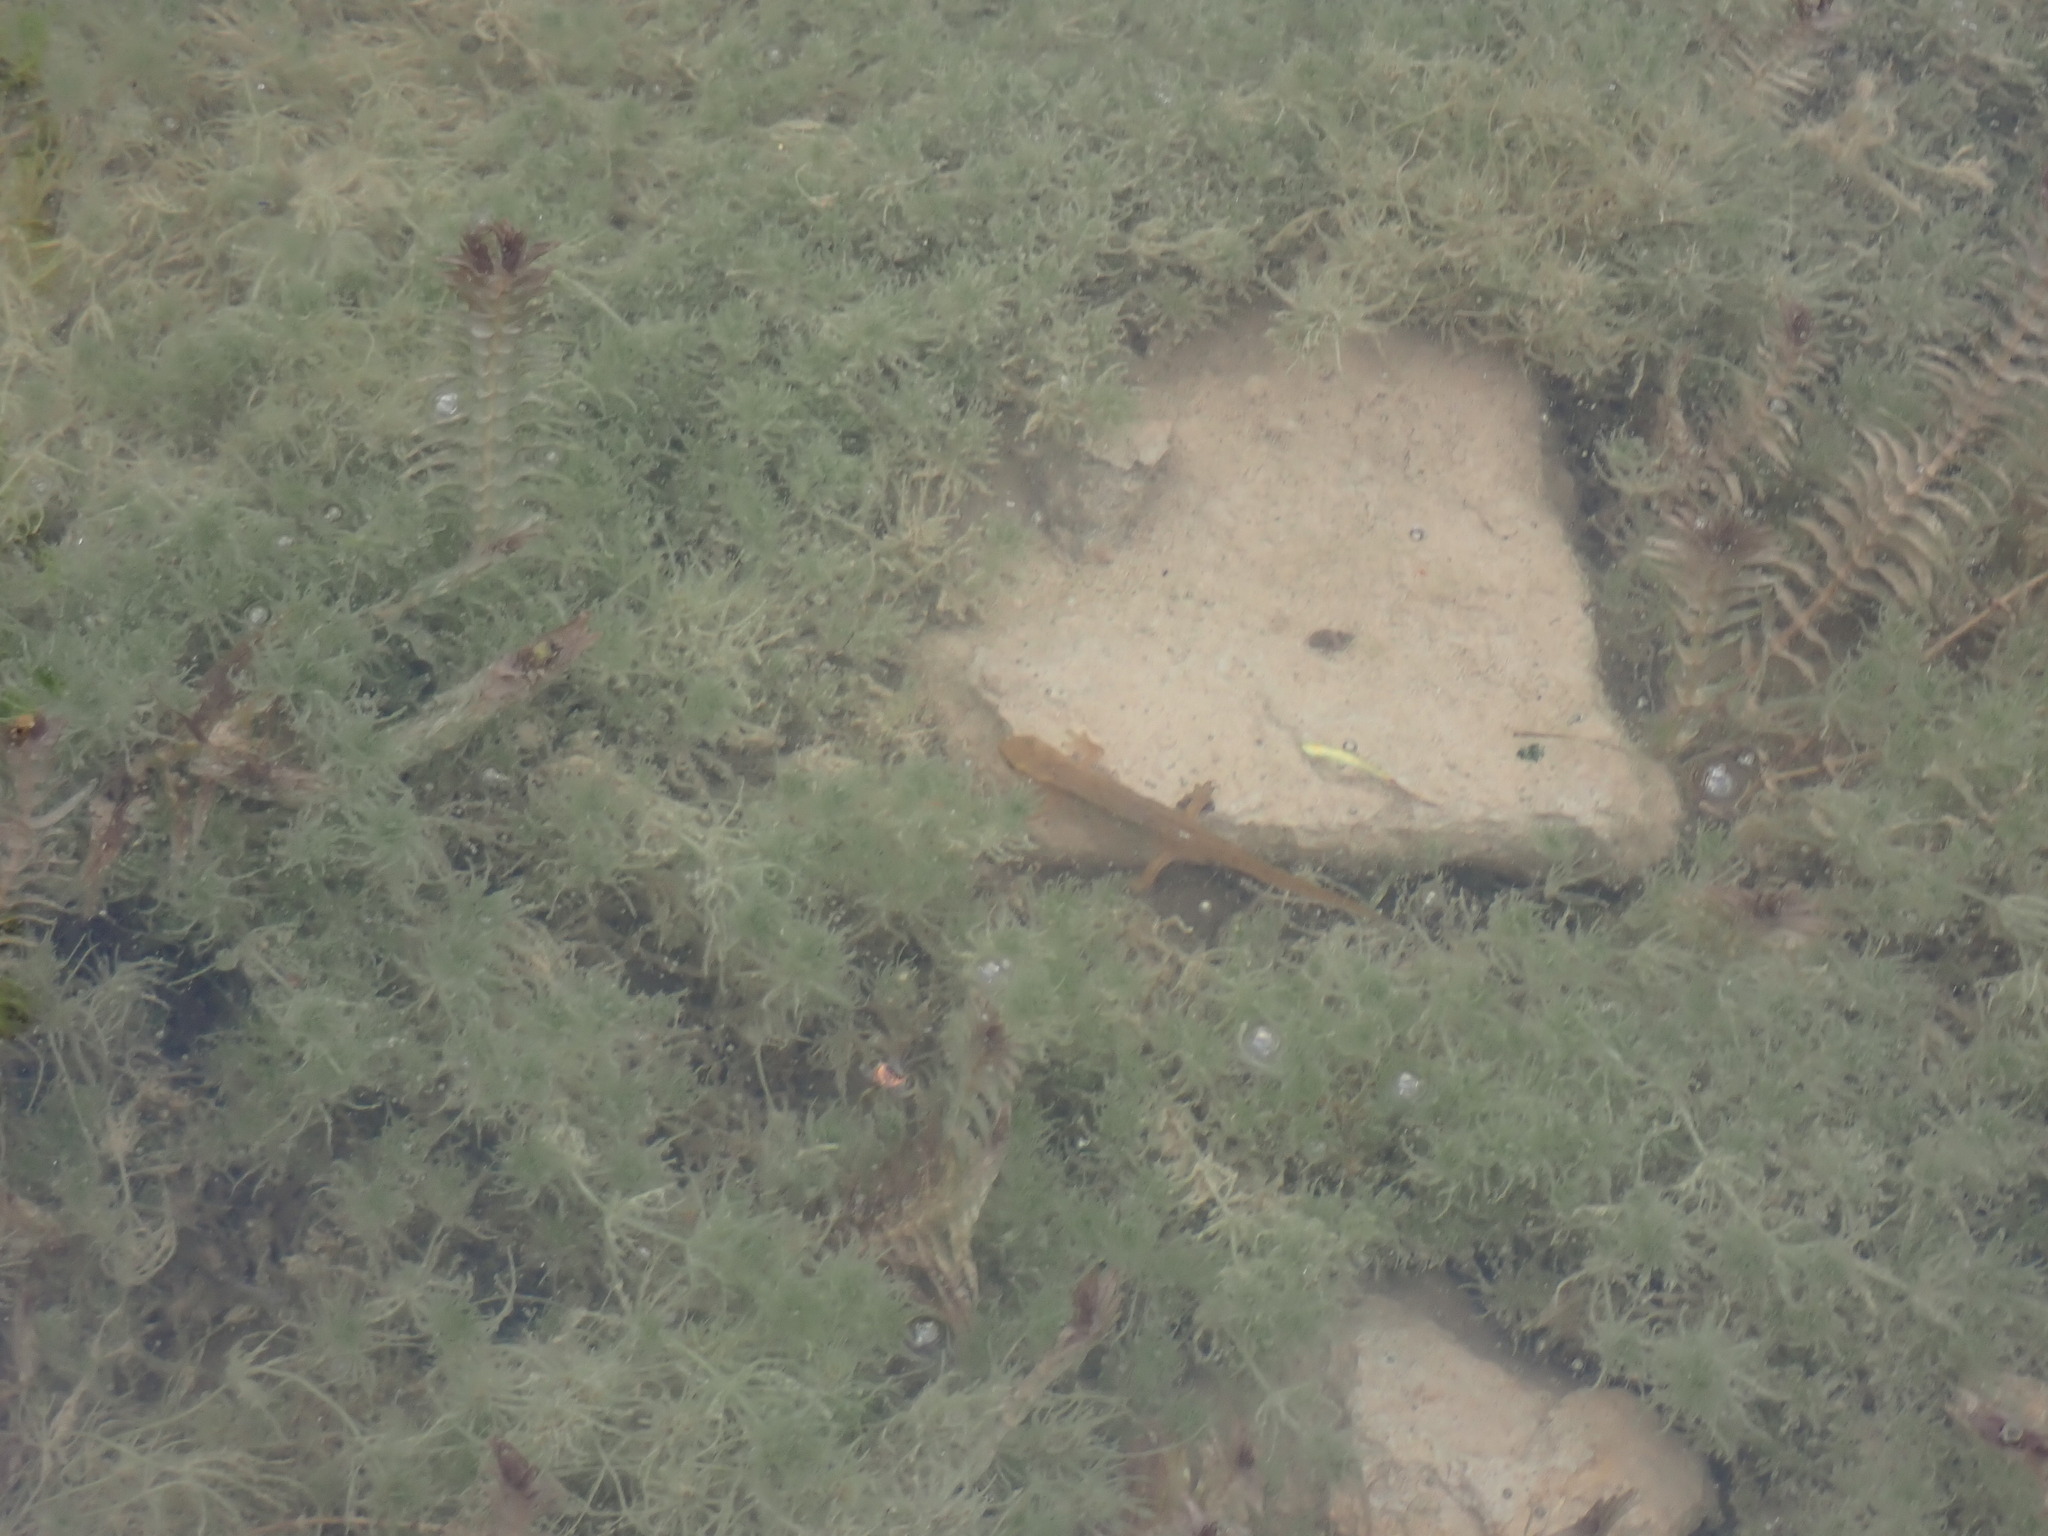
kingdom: Animalia
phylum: Chordata
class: Amphibia
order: Caudata
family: Salamandridae
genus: Lissotriton
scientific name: Lissotriton helveticus
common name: Palmate newt
